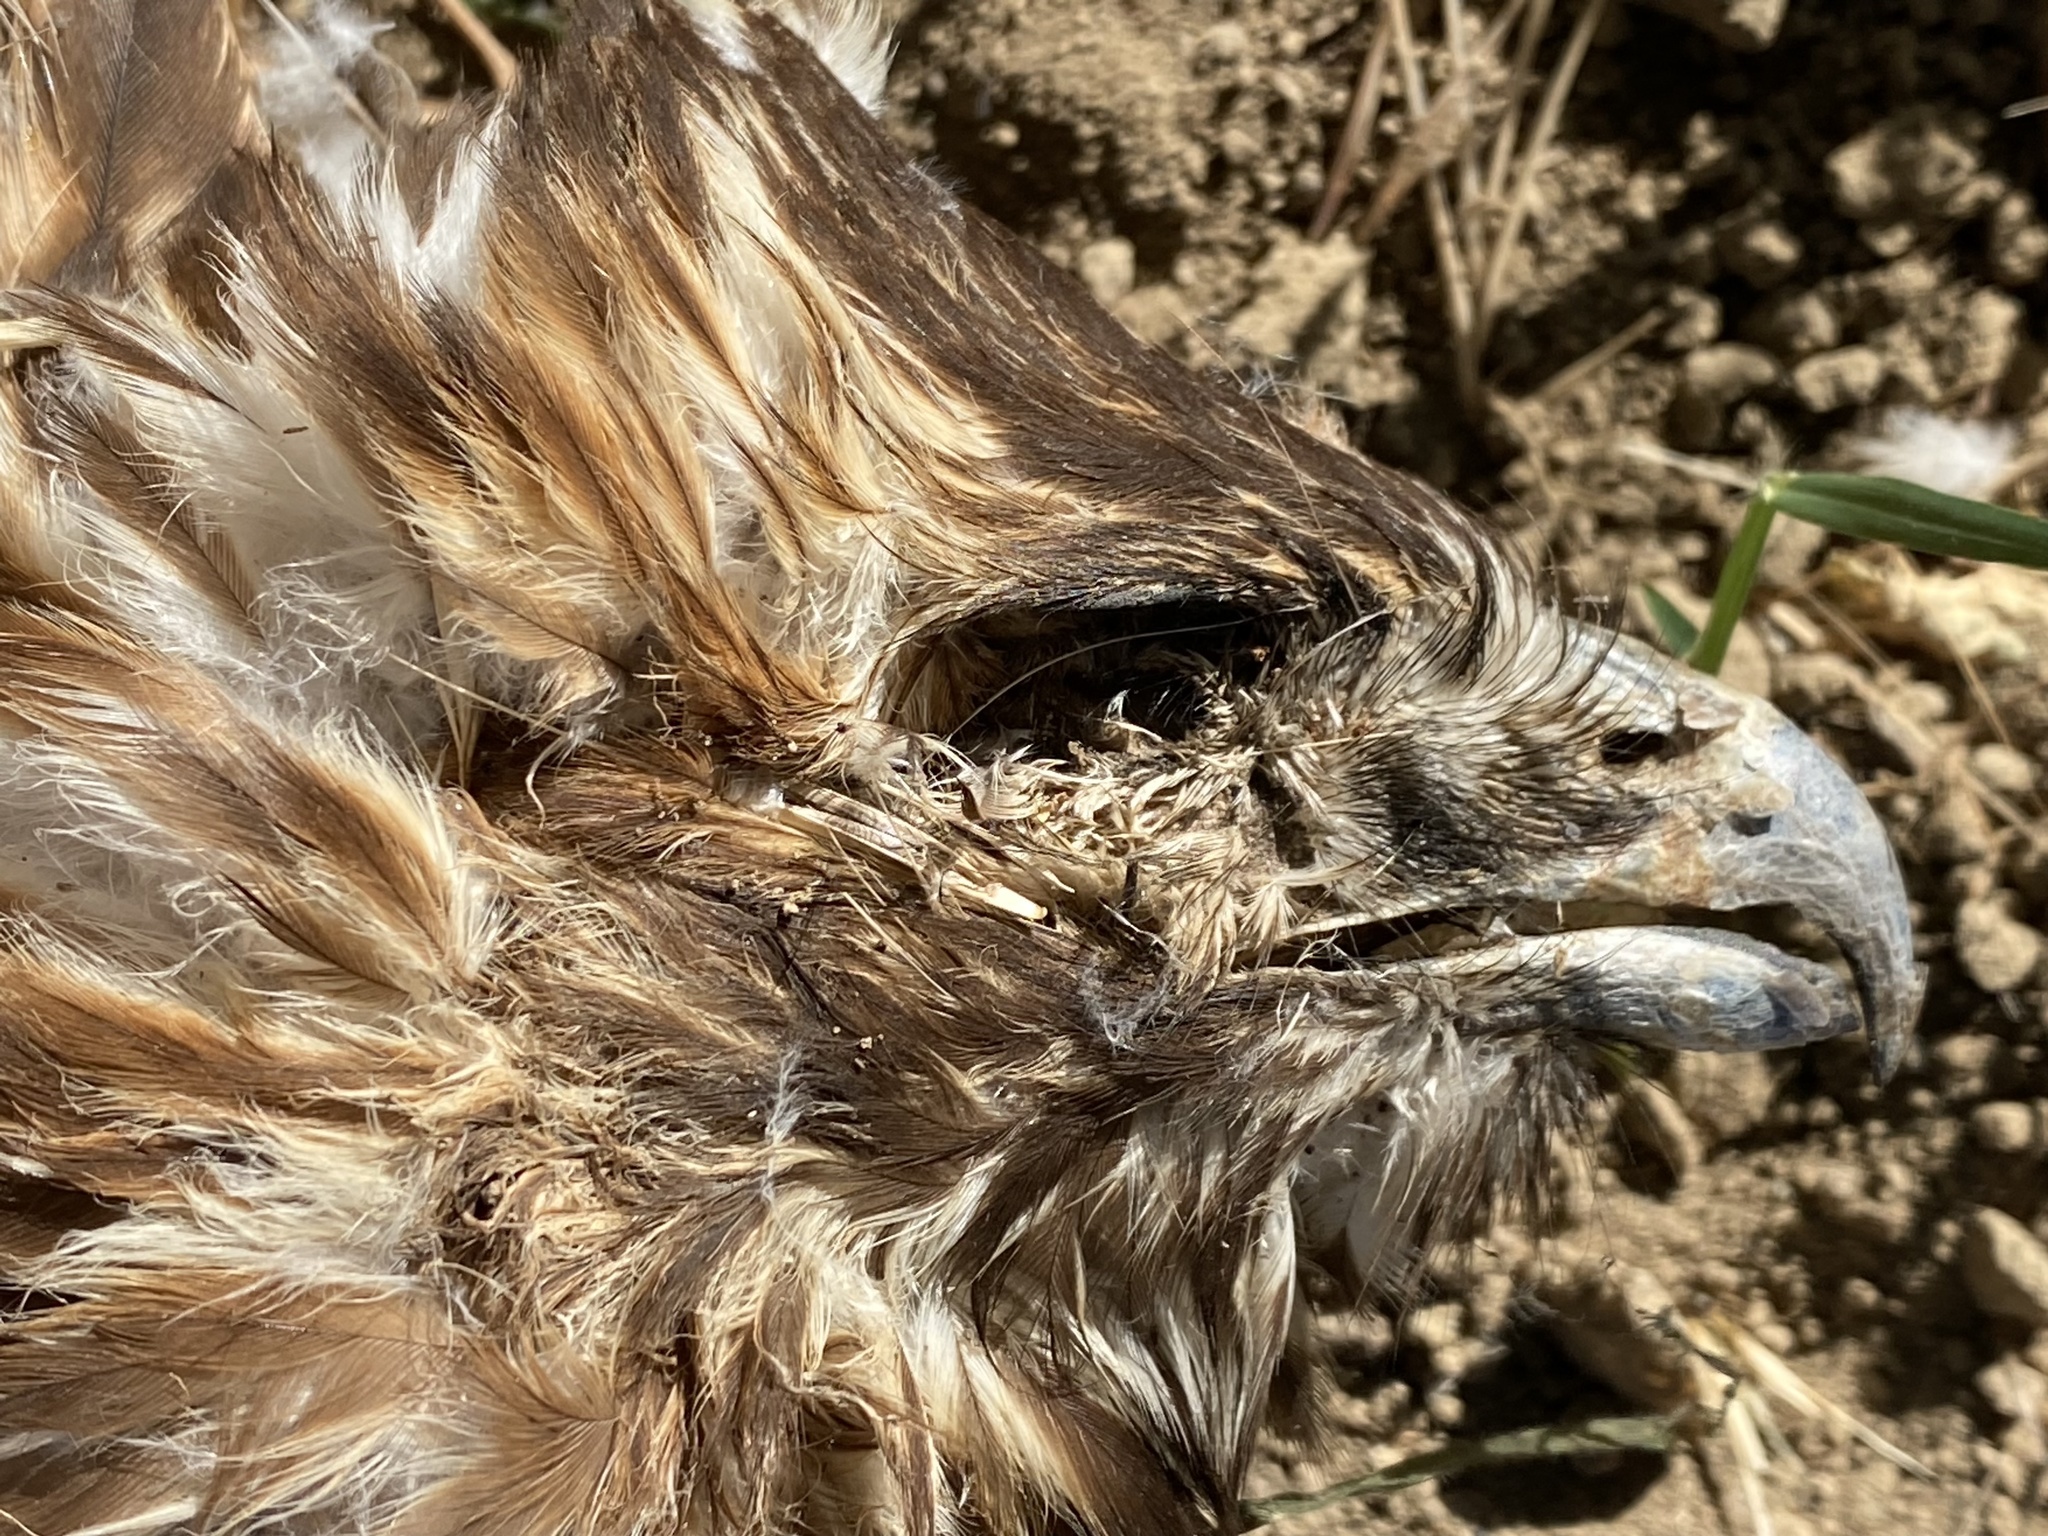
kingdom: Animalia
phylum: Chordata
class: Aves
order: Accipitriformes
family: Accipitridae
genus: Buteo
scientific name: Buteo jamaicensis
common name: Red-tailed hawk
